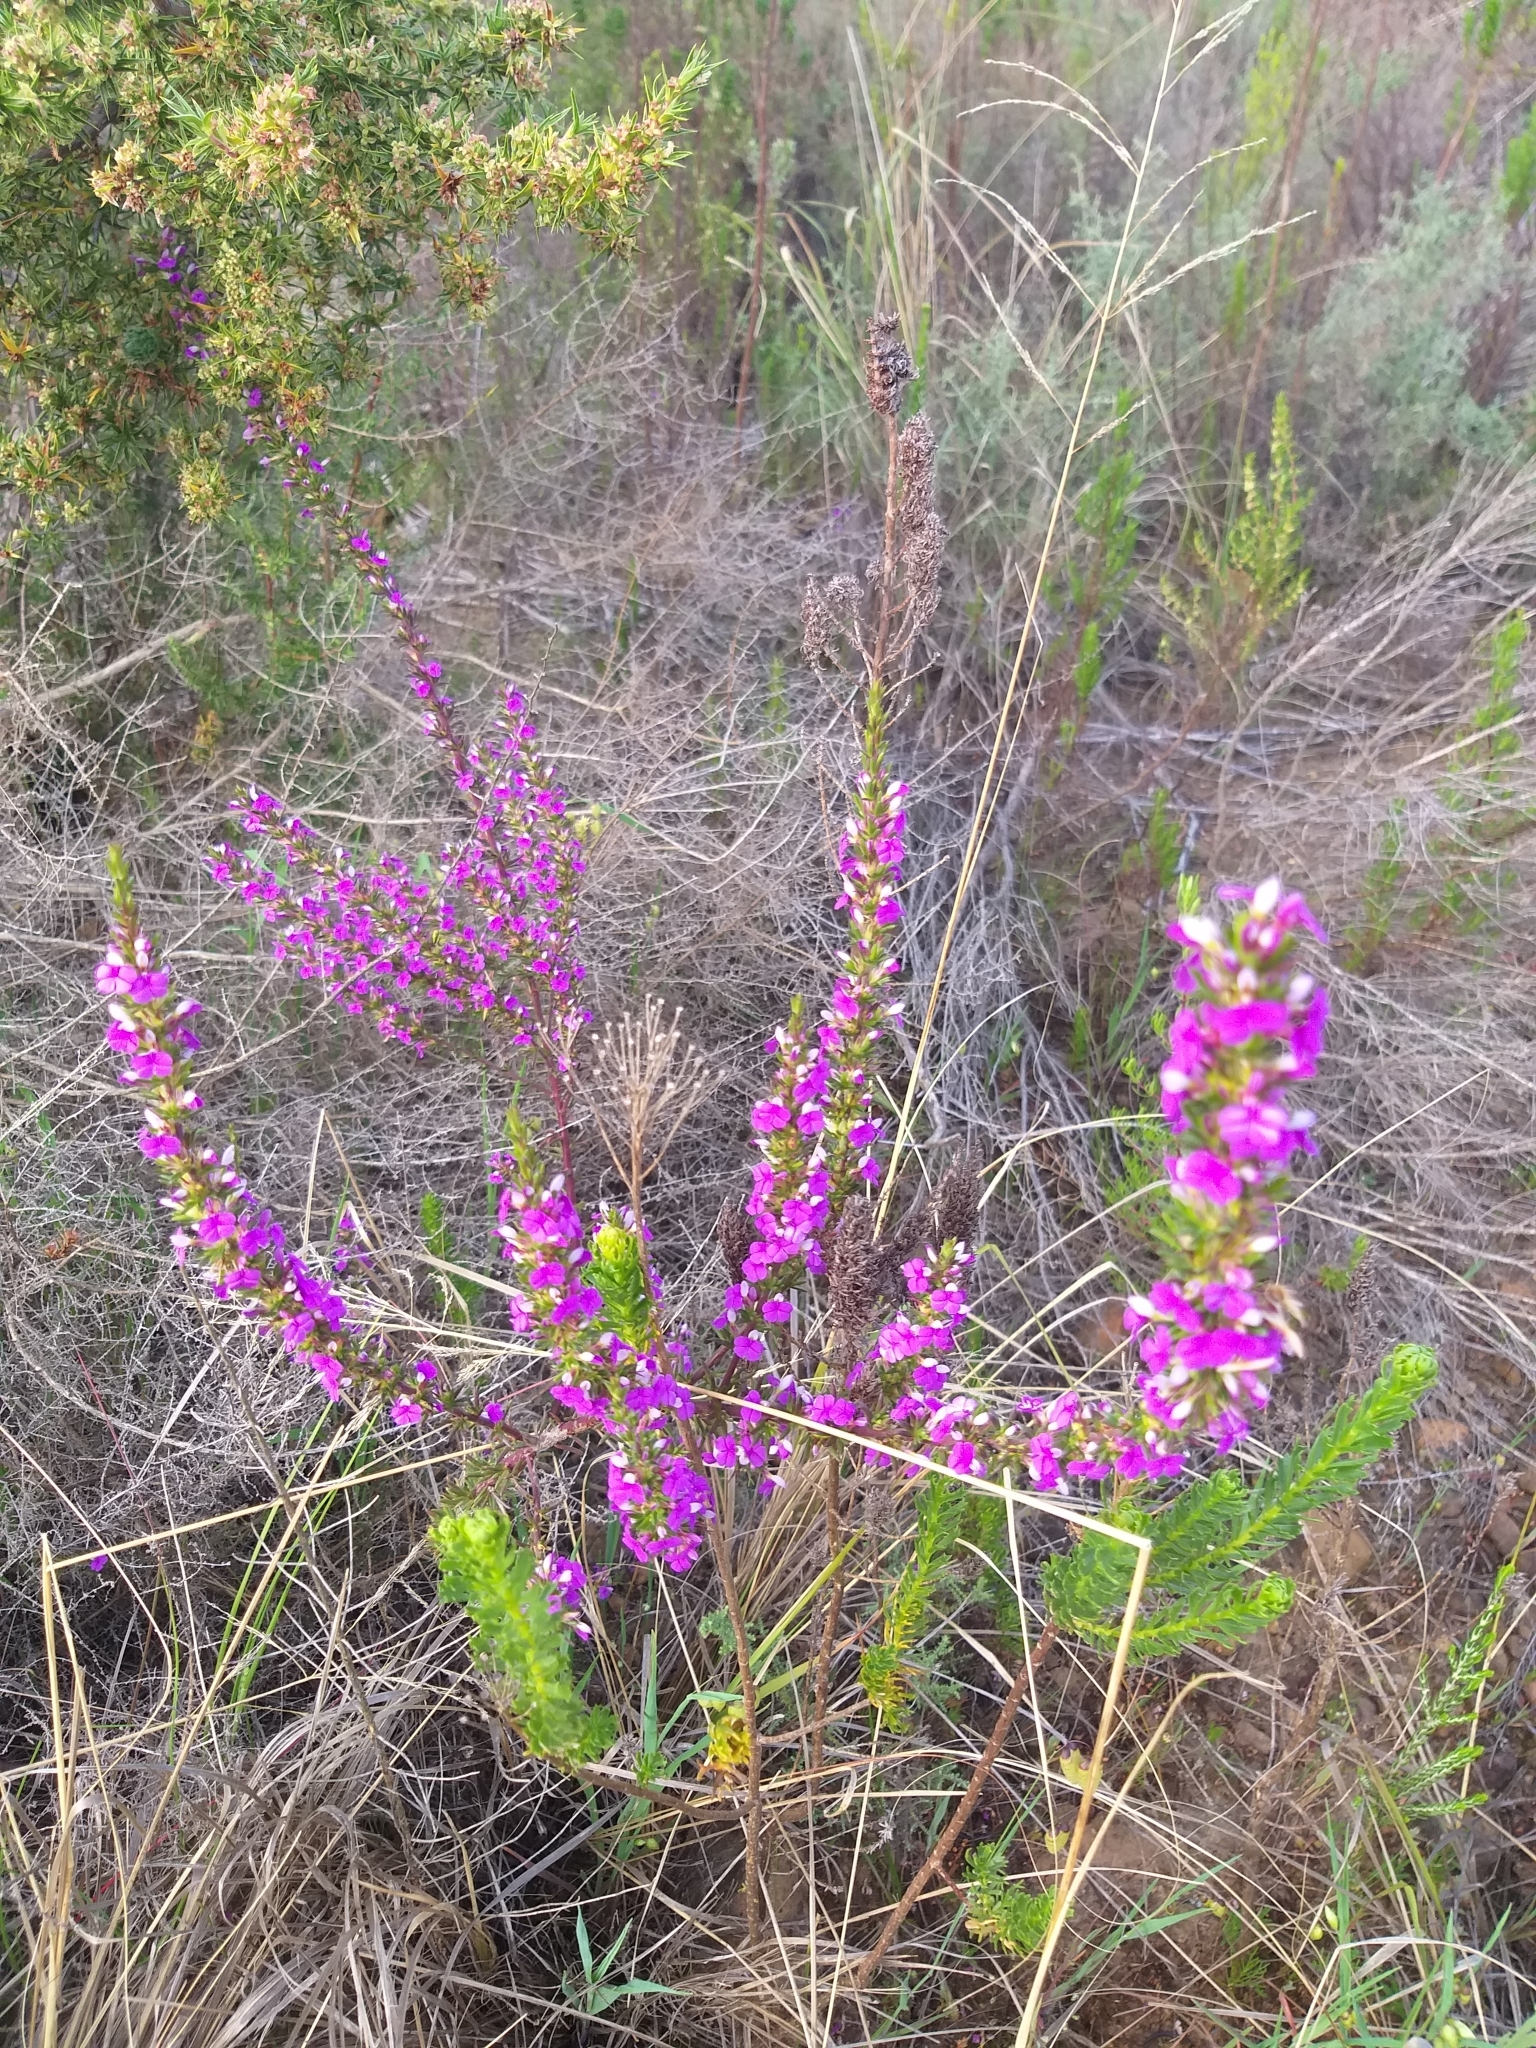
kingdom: Plantae
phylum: Tracheophyta
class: Magnoliopsida
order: Fabales
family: Polygalaceae
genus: Muraltia
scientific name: Muraltia heisteria
